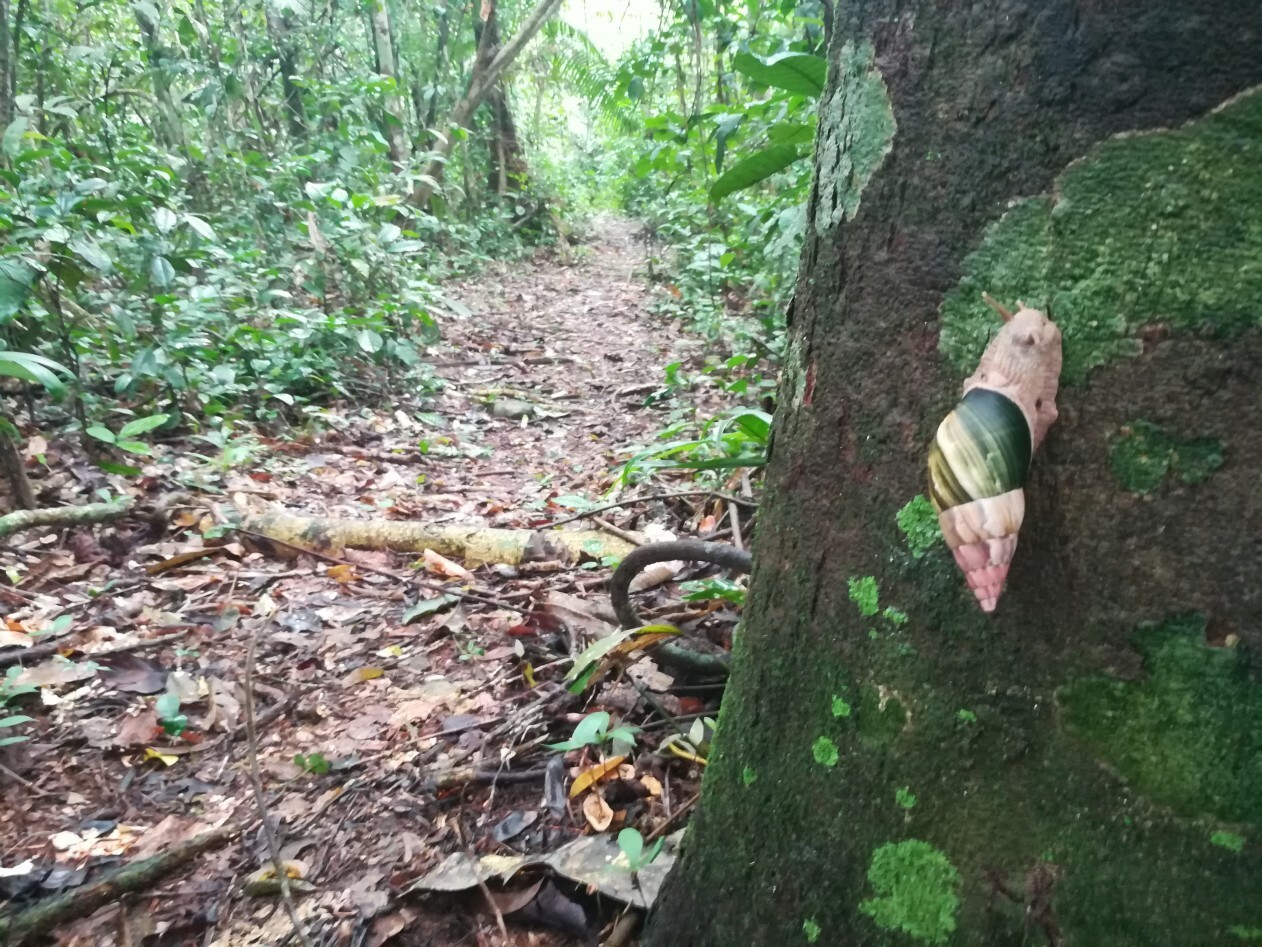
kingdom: Animalia
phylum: Mollusca
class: Gastropoda
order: Stylommatophora
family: Orthalicidae
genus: Corona
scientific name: Corona regalis
